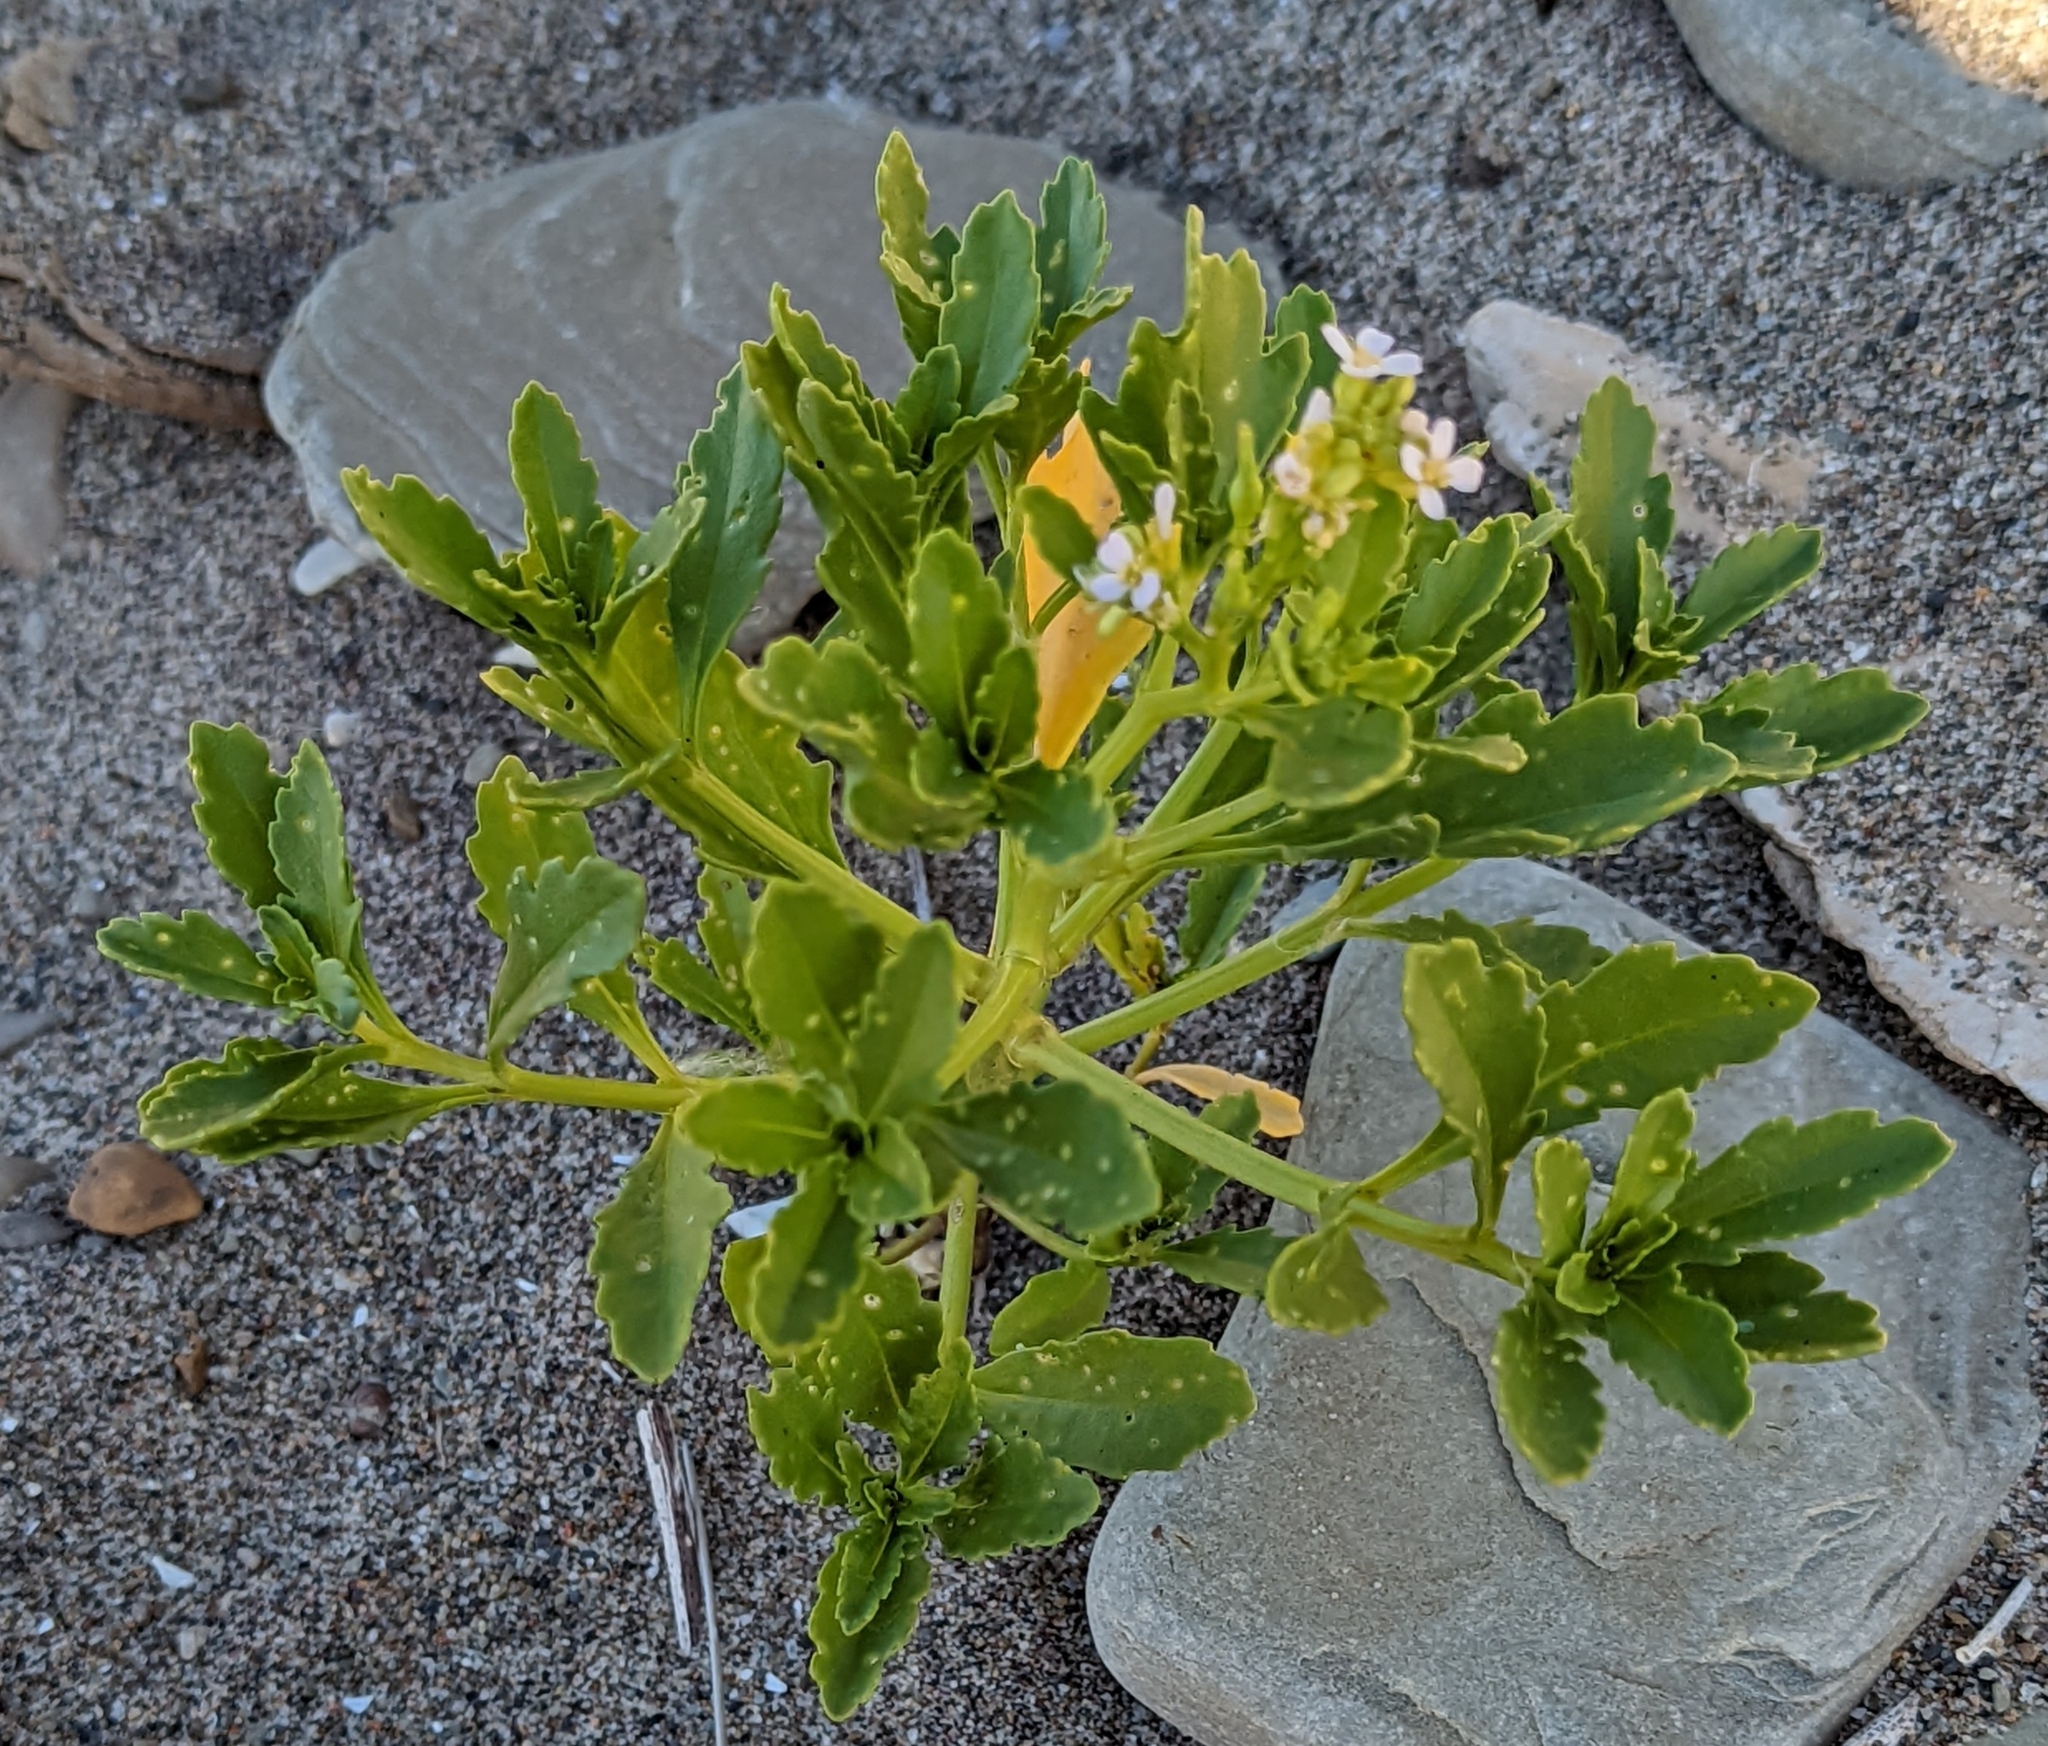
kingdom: Plantae
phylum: Tracheophyta
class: Magnoliopsida
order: Brassicales
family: Brassicaceae
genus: Cakile
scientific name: Cakile edentula
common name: American sea rocket
